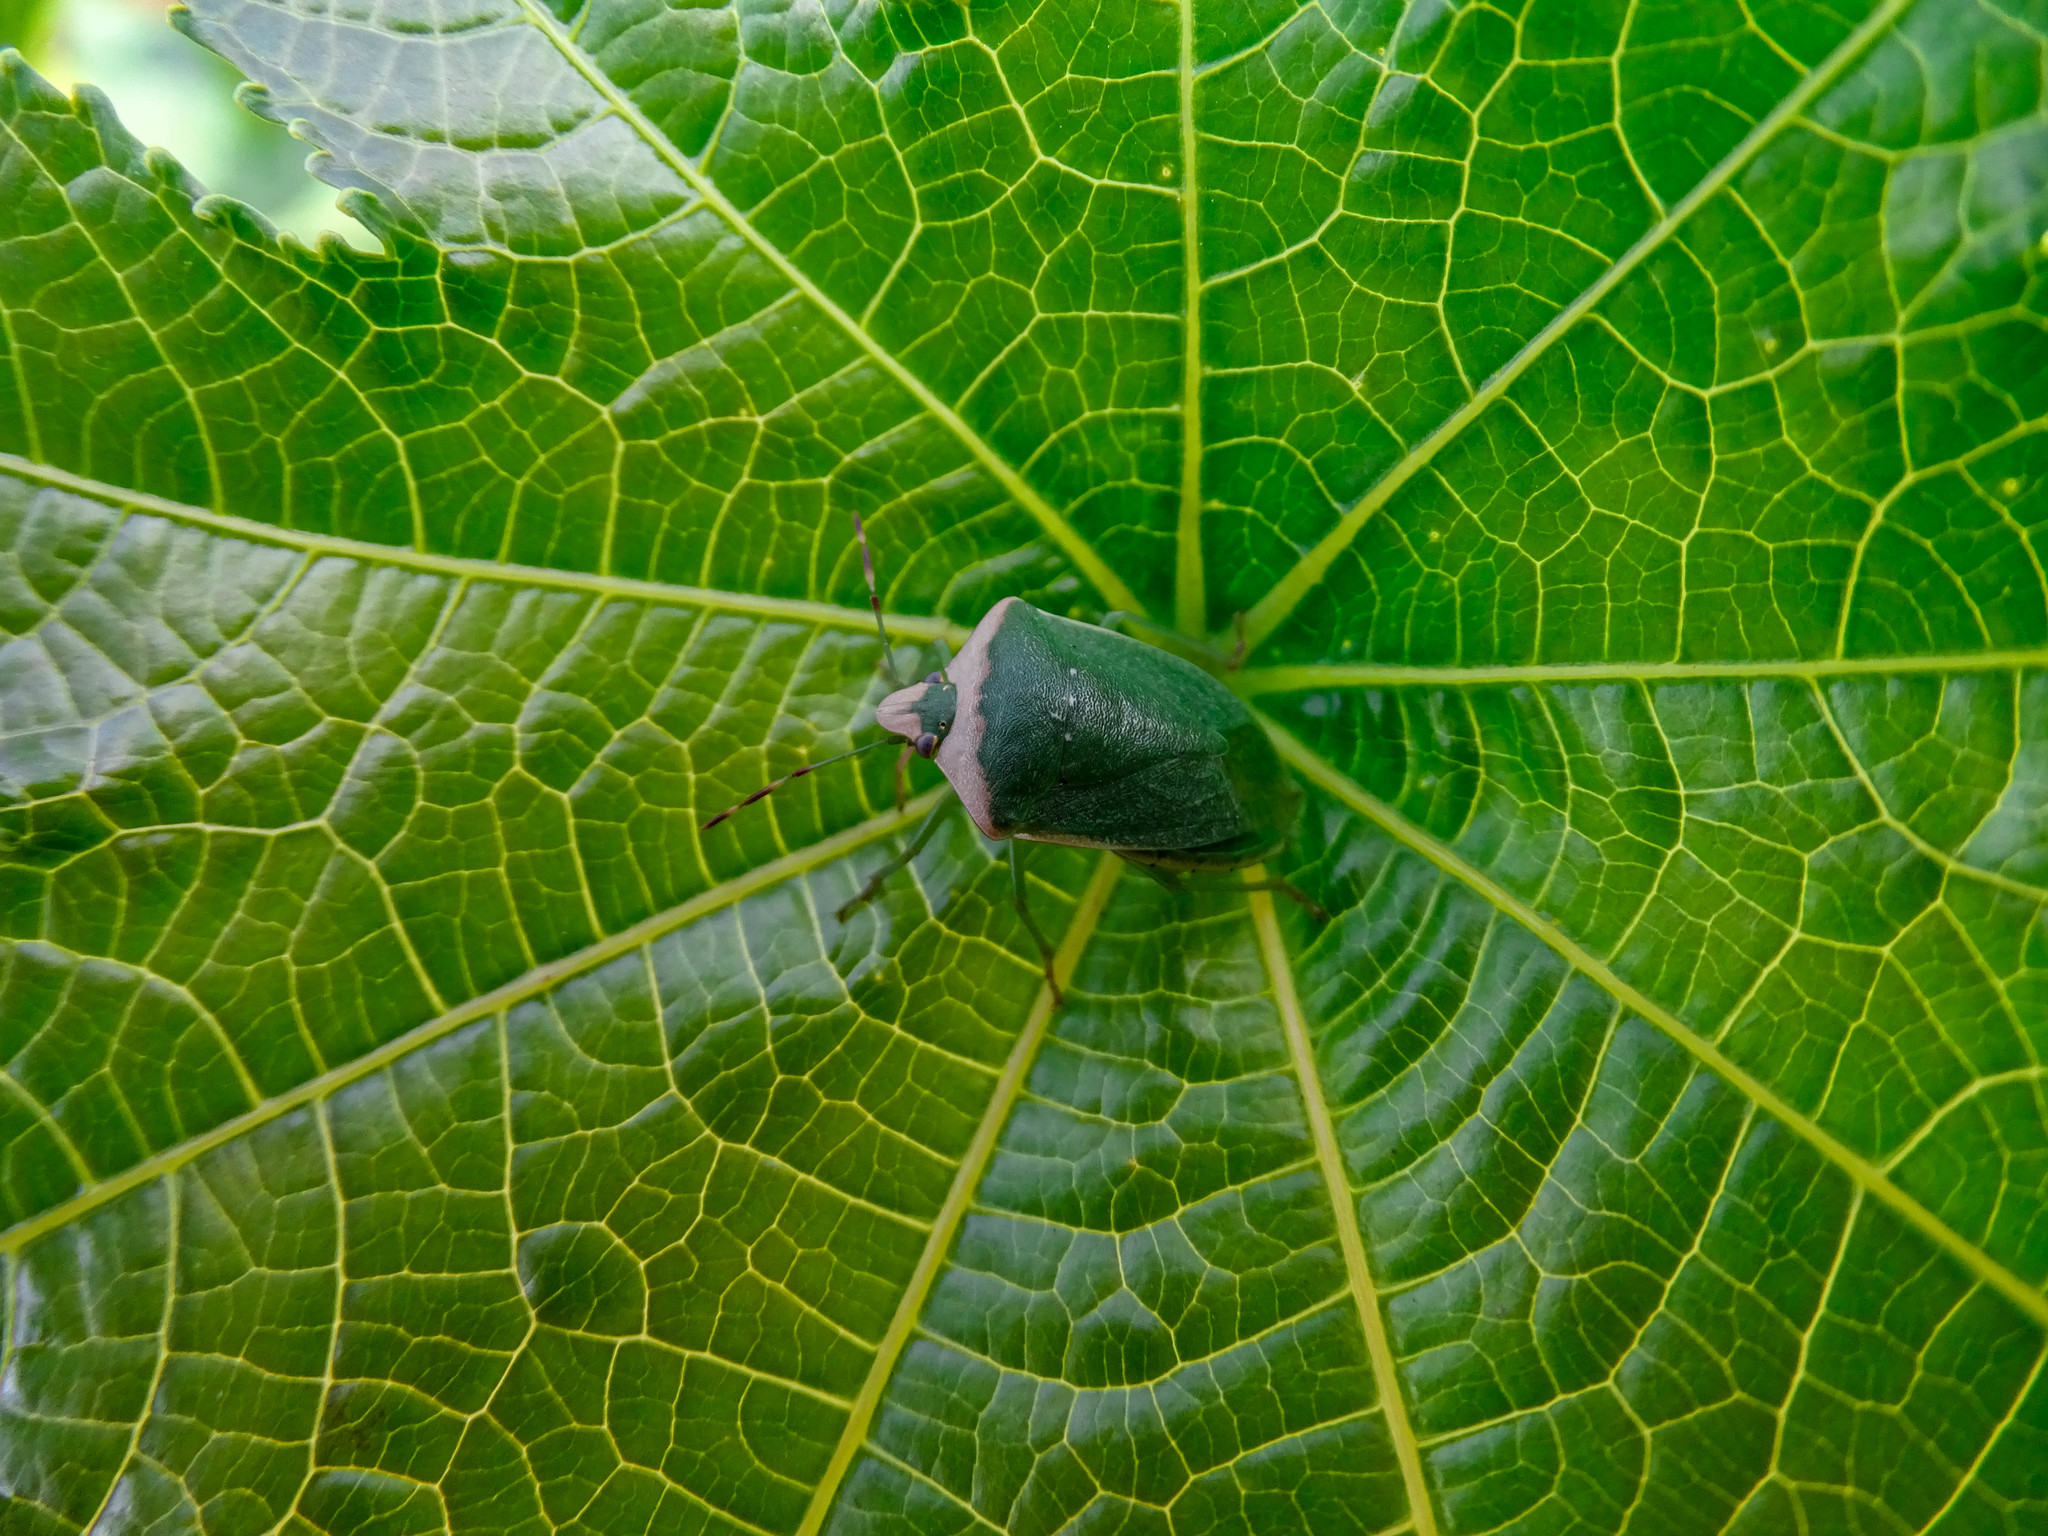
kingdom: Animalia
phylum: Arthropoda
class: Insecta
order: Hemiptera
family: Pentatomidae
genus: Nezara
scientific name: Nezara viridula
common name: Southern green stink bug
